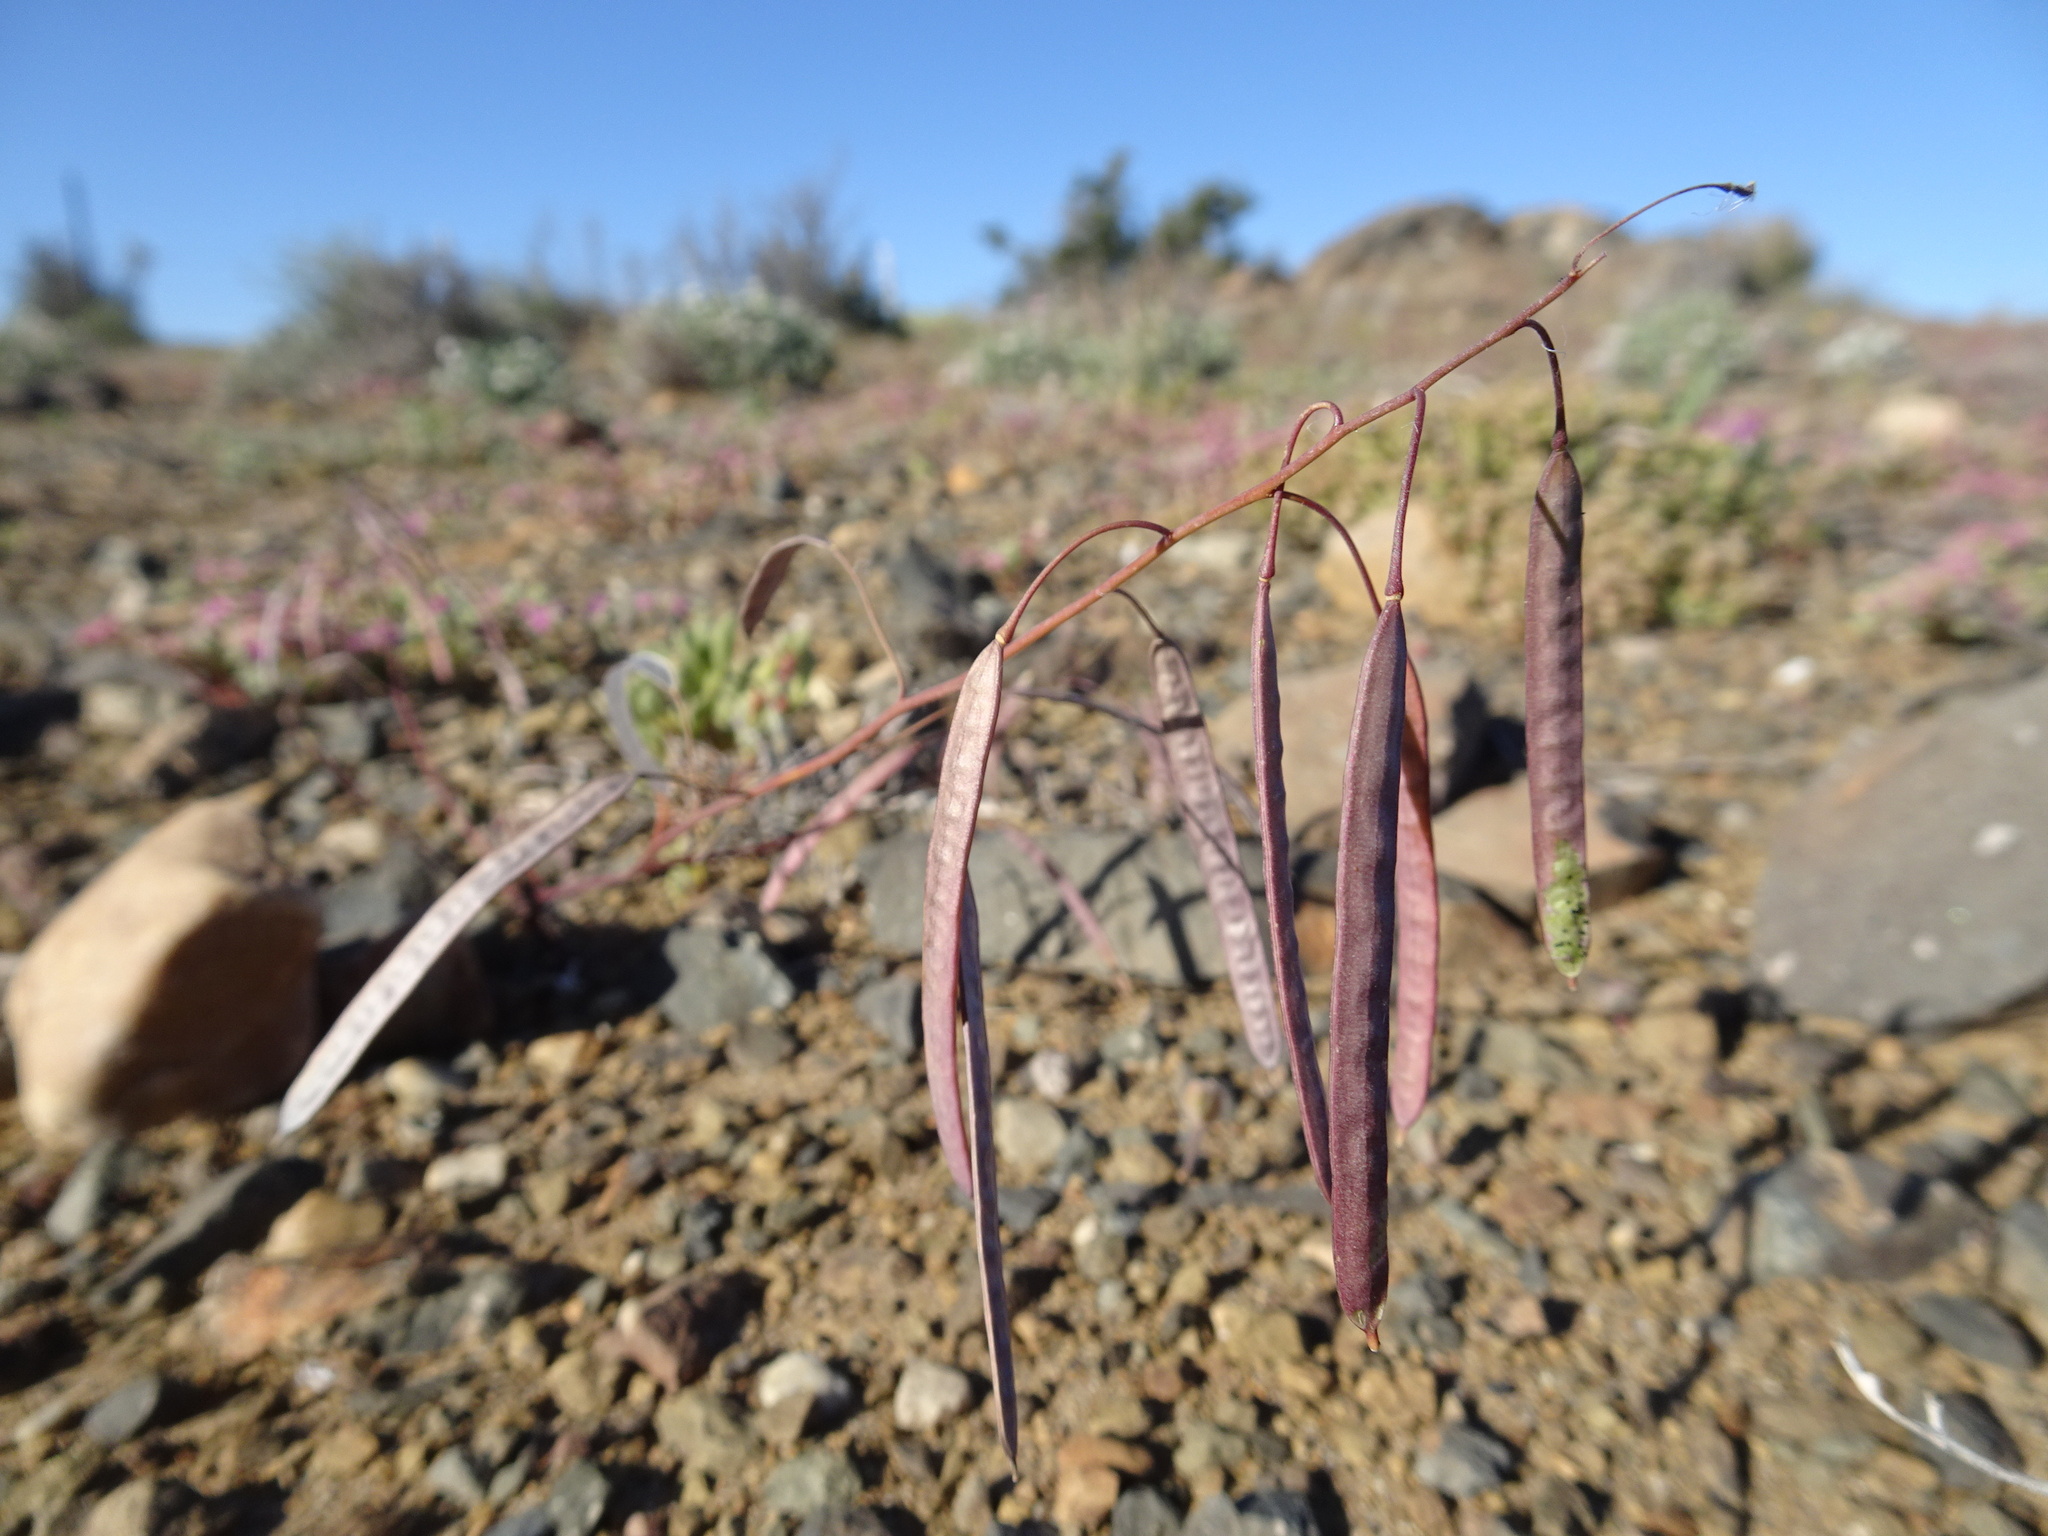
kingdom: Plantae
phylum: Tracheophyta
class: Magnoliopsida
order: Brassicales
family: Brassicaceae
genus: Heliophila
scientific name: Heliophila crithmifolia
